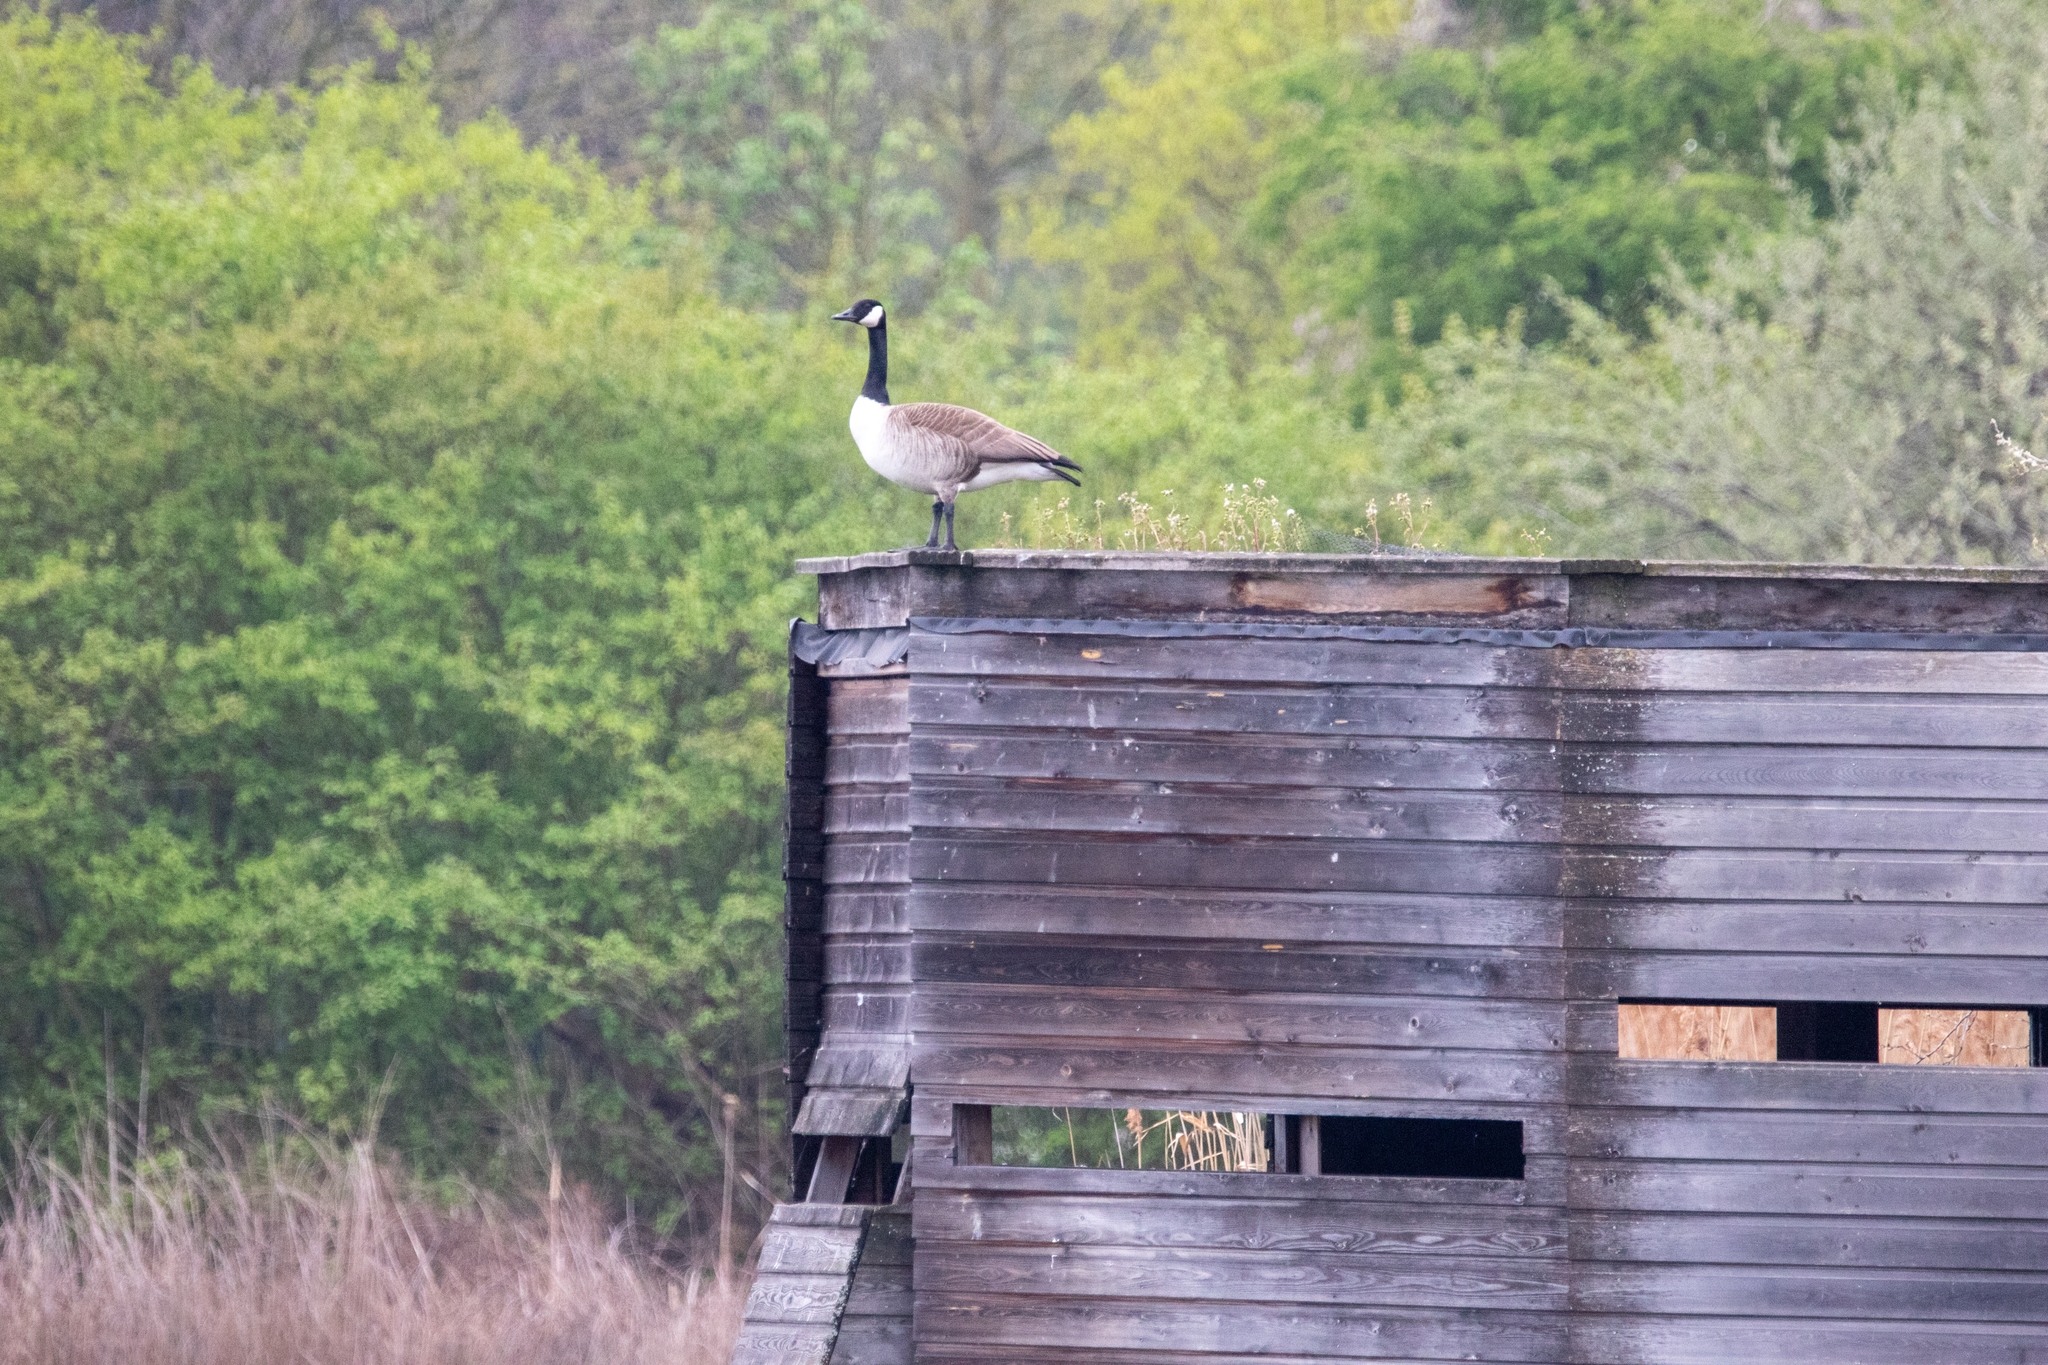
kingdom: Animalia
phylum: Chordata
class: Aves
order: Anseriformes
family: Anatidae
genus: Branta
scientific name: Branta canadensis
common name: Canada goose
